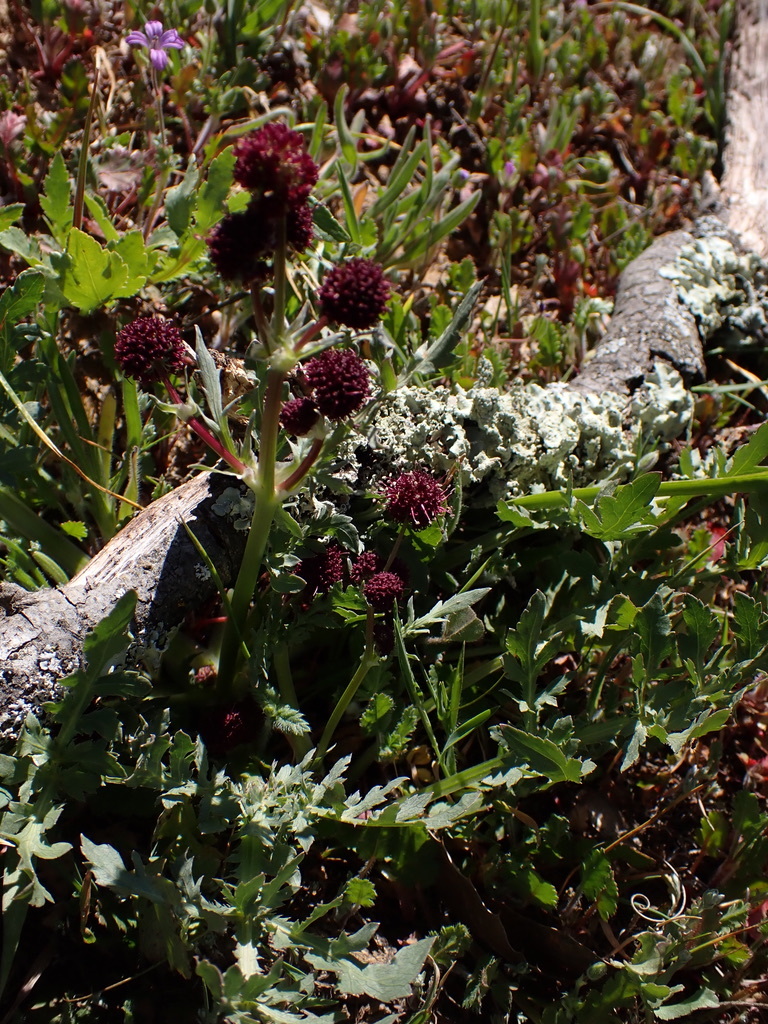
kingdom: Plantae
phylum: Tracheophyta
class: Magnoliopsida
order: Apiales
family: Apiaceae
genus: Sanicula
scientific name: Sanicula bipinnatifida
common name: Shoe-buttons
